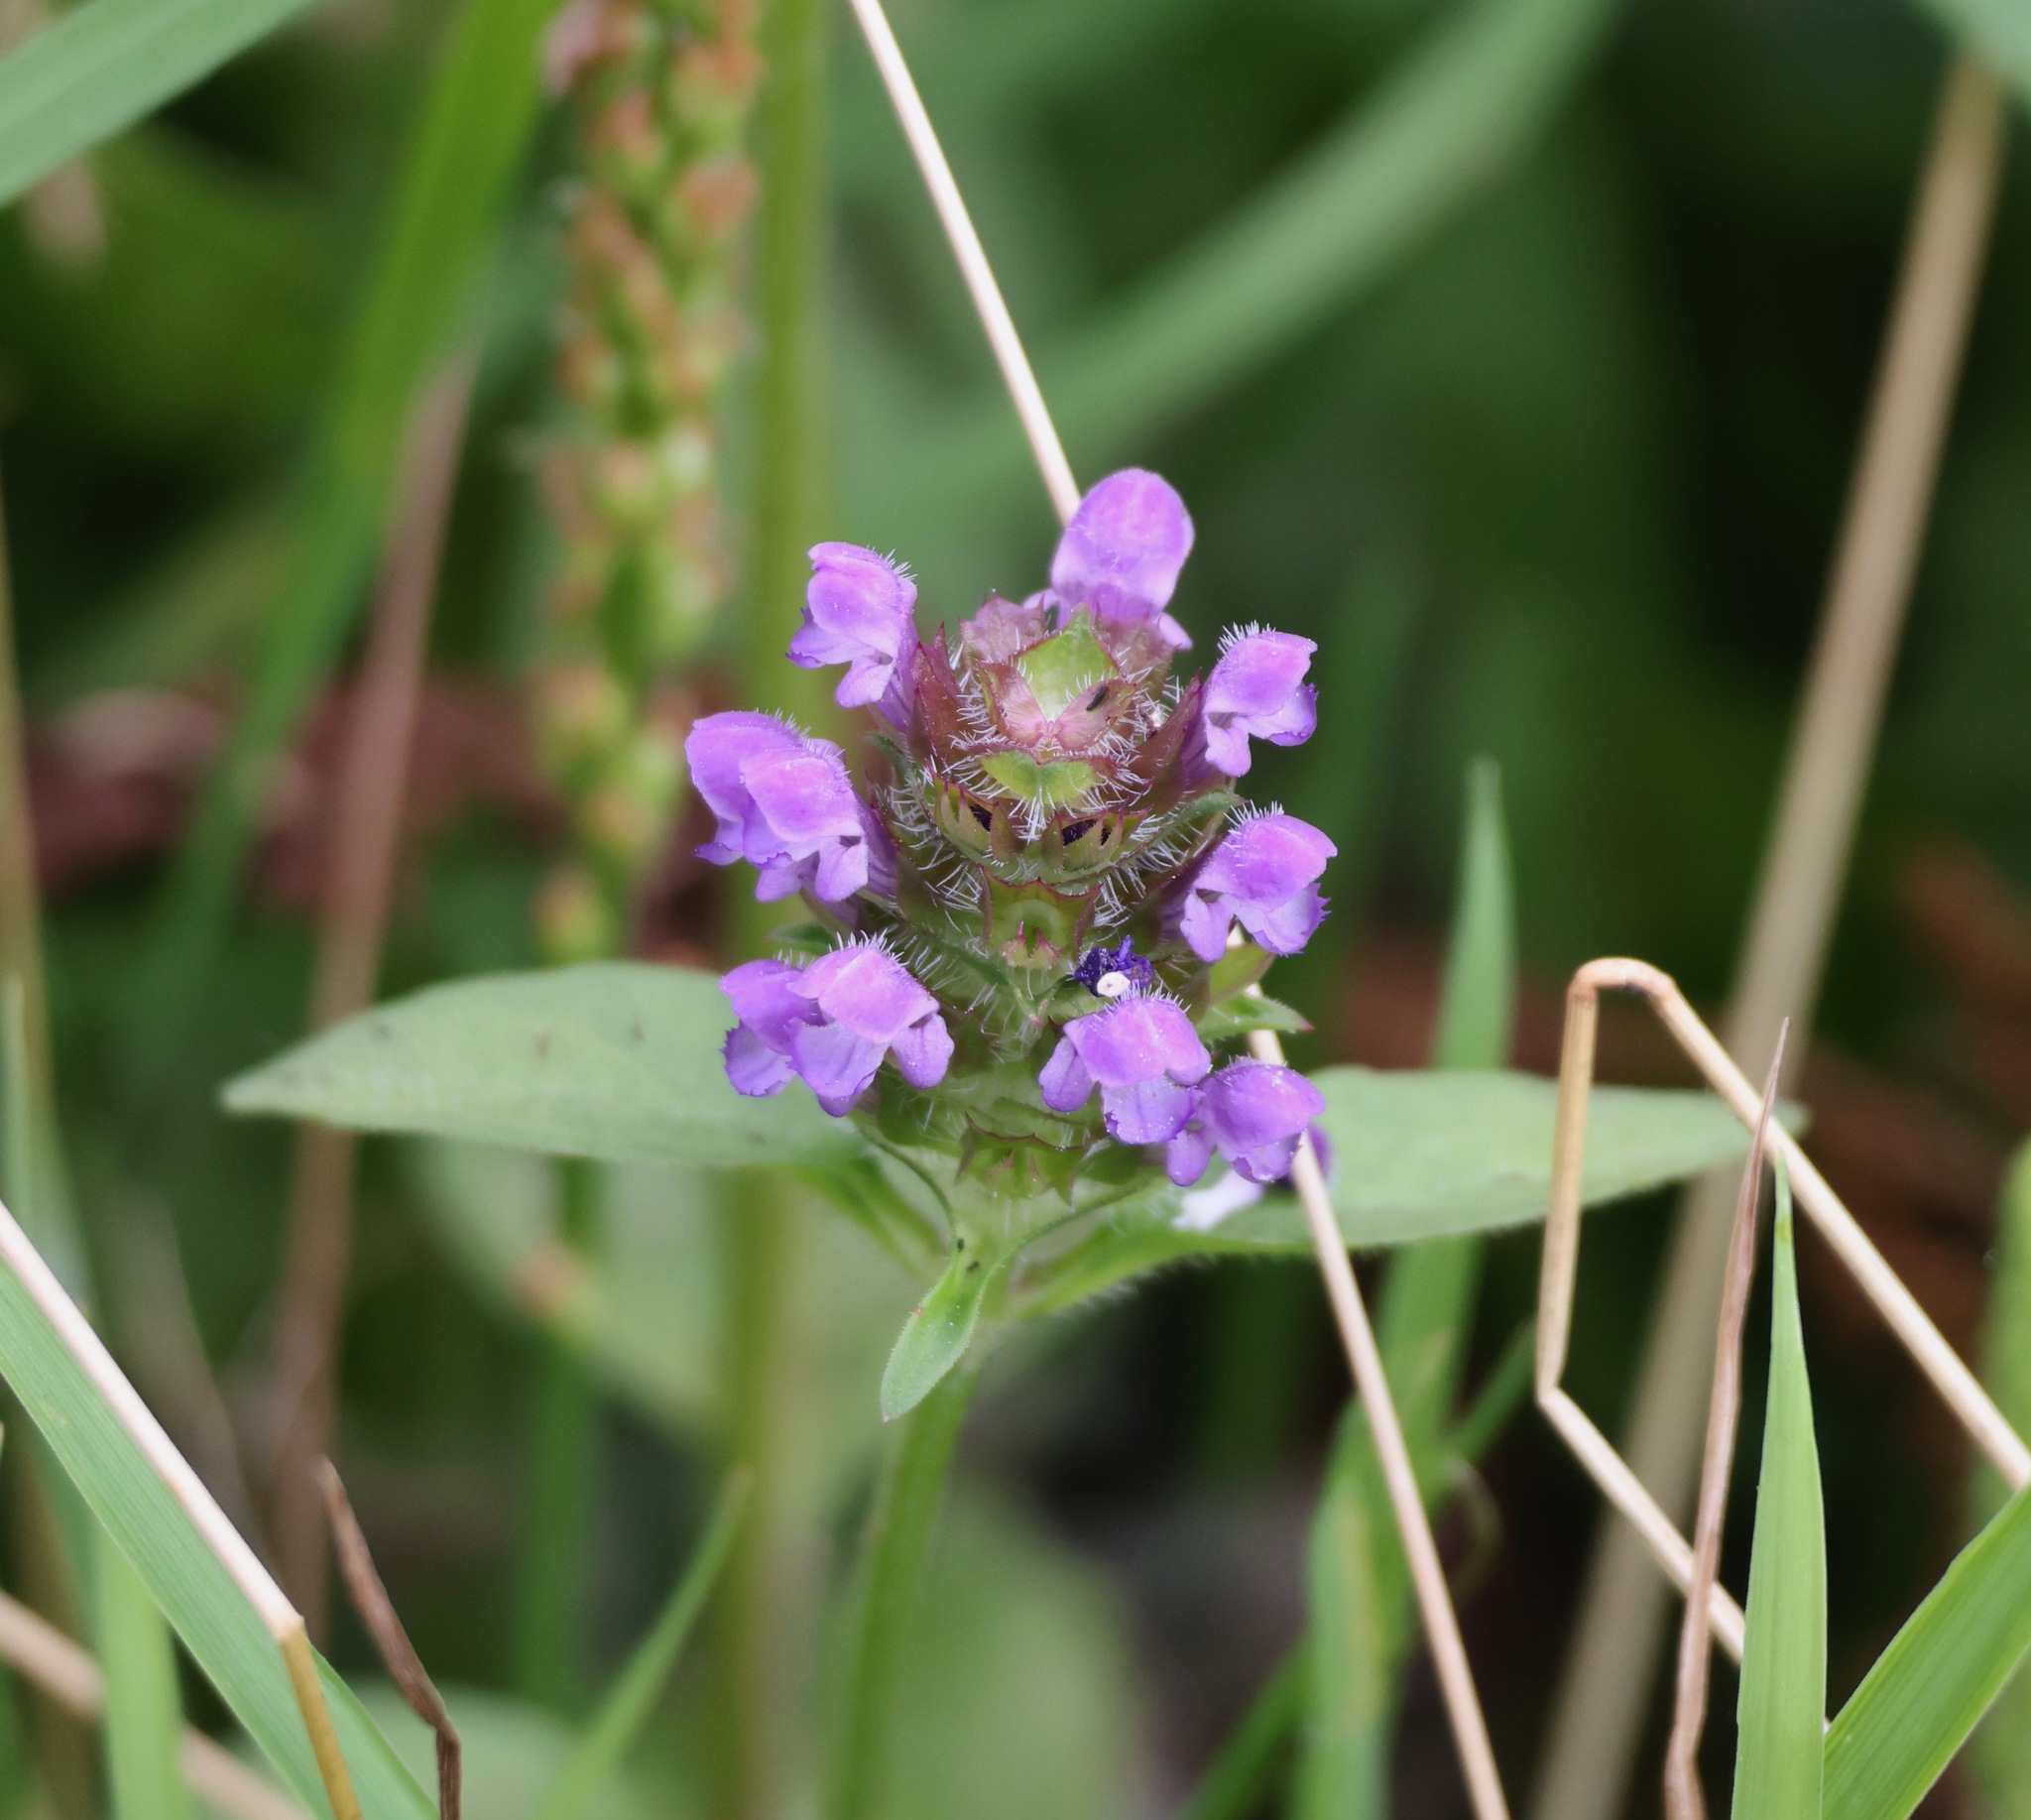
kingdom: Plantae
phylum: Tracheophyta
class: Magnoliopsida
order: Lamiales
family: Lamiaceae
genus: Prunella
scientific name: Prunella vulgaris
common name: Heal-all
